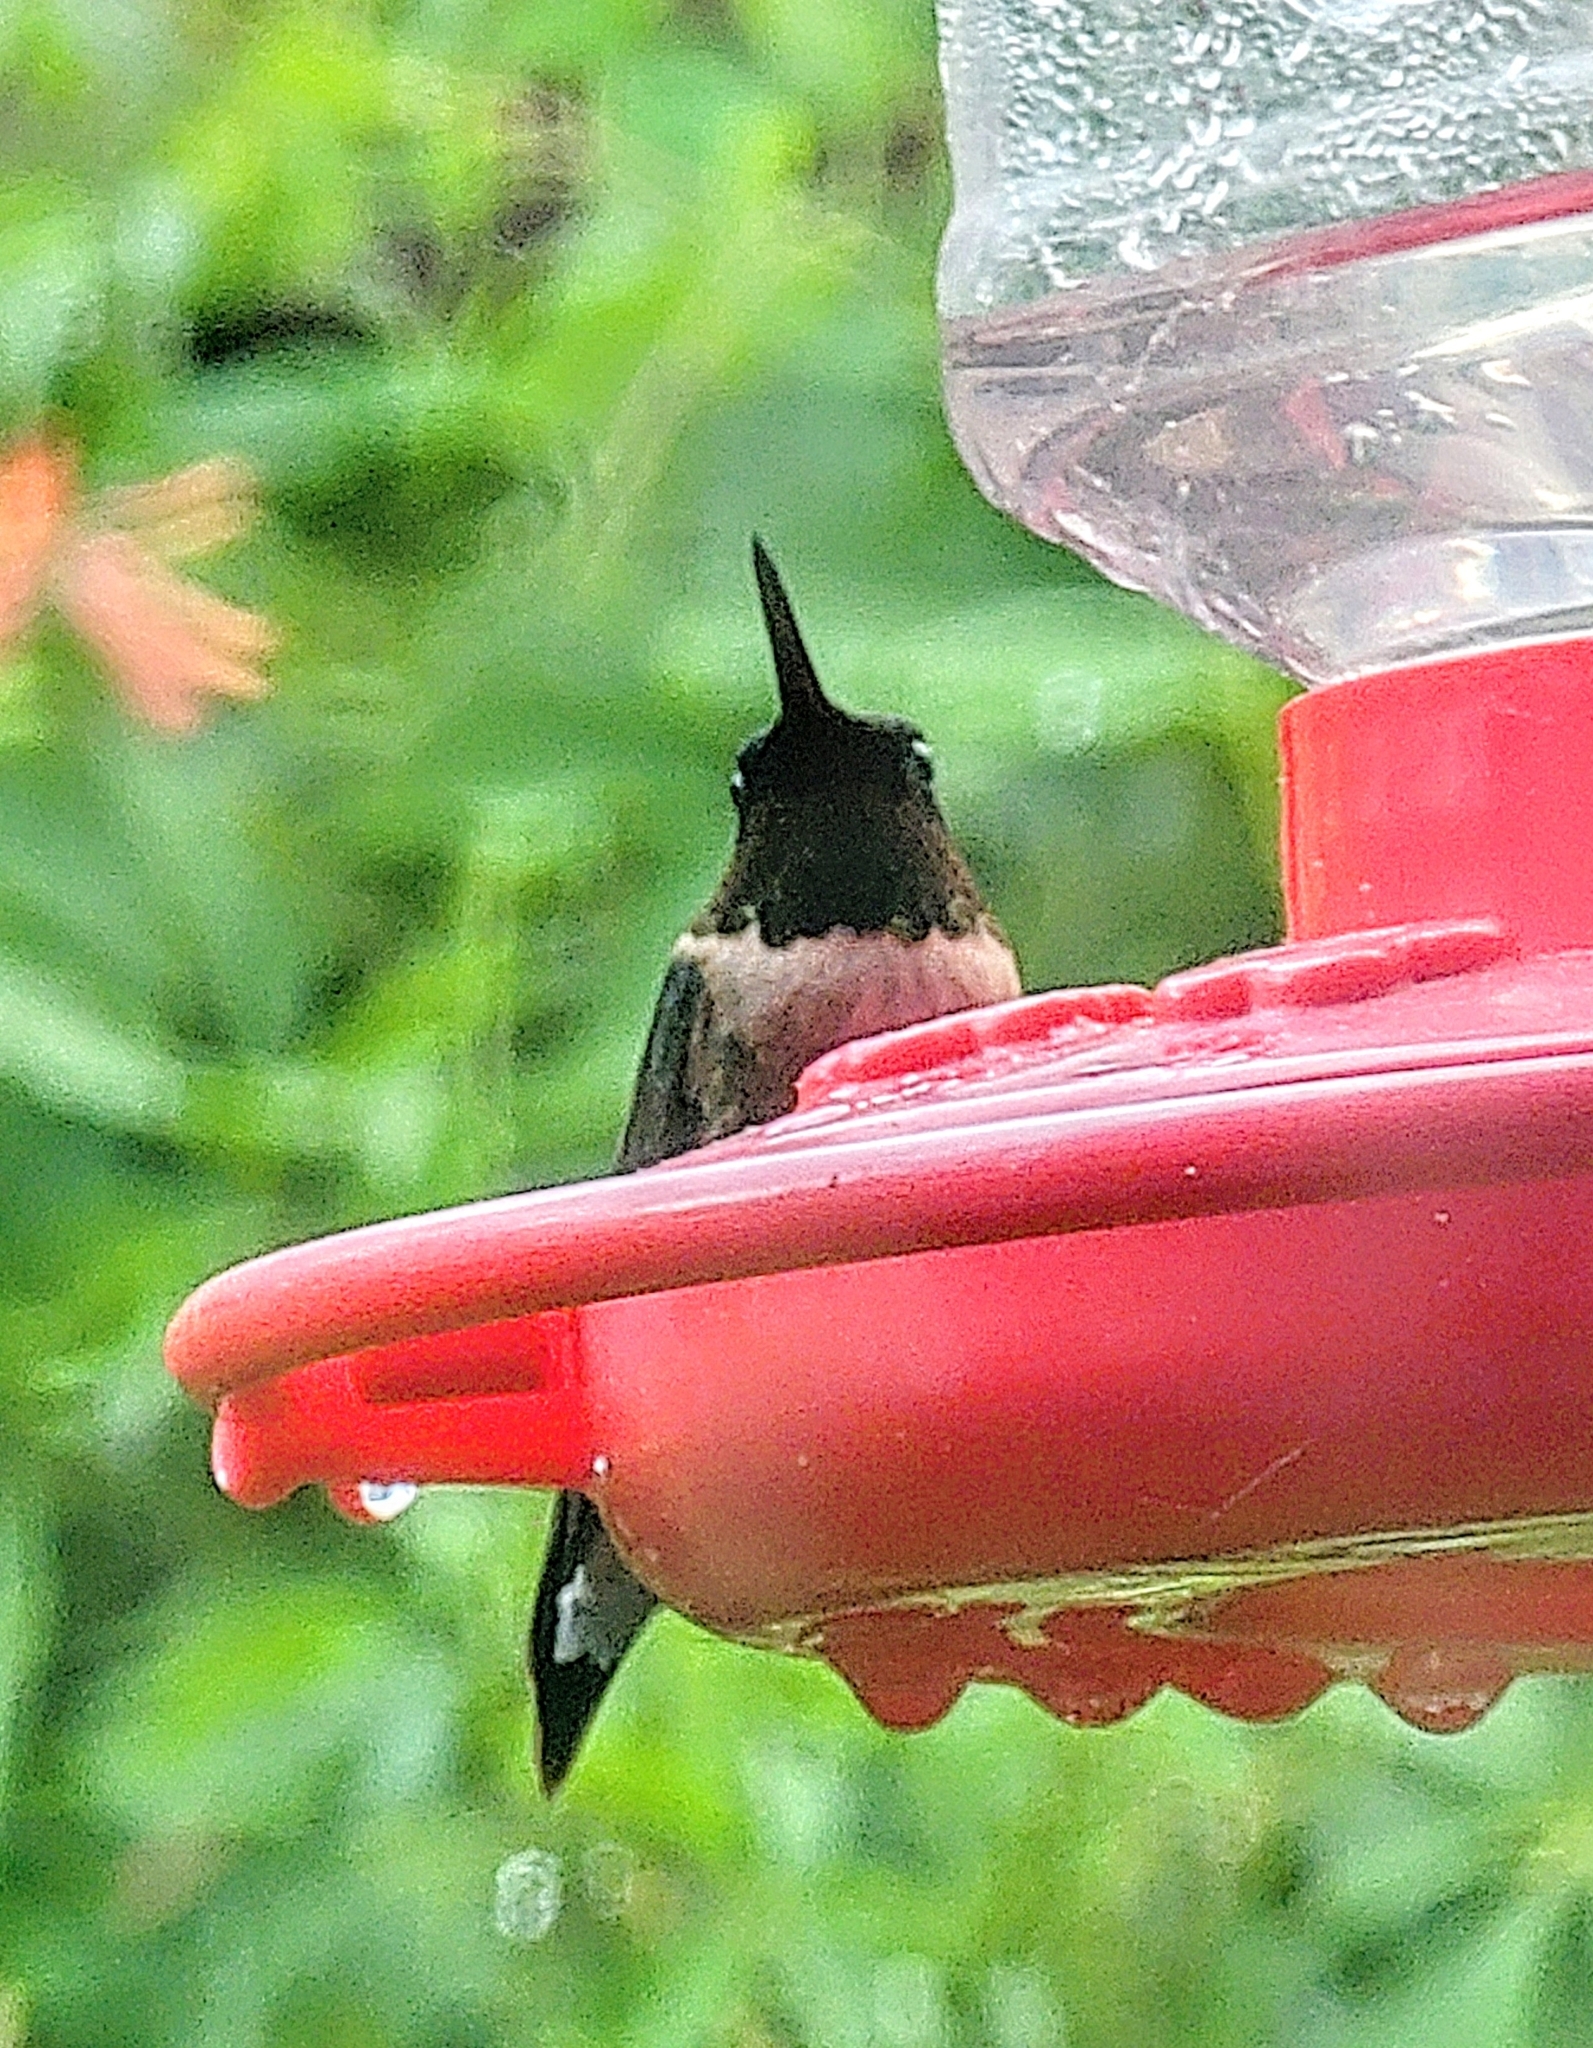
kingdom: Animalia
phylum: Chordata
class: Aves
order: Apodiformes
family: Trochilidae
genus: Archilochus
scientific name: Archilochus colubris
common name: Ruby-throated hummingbird
